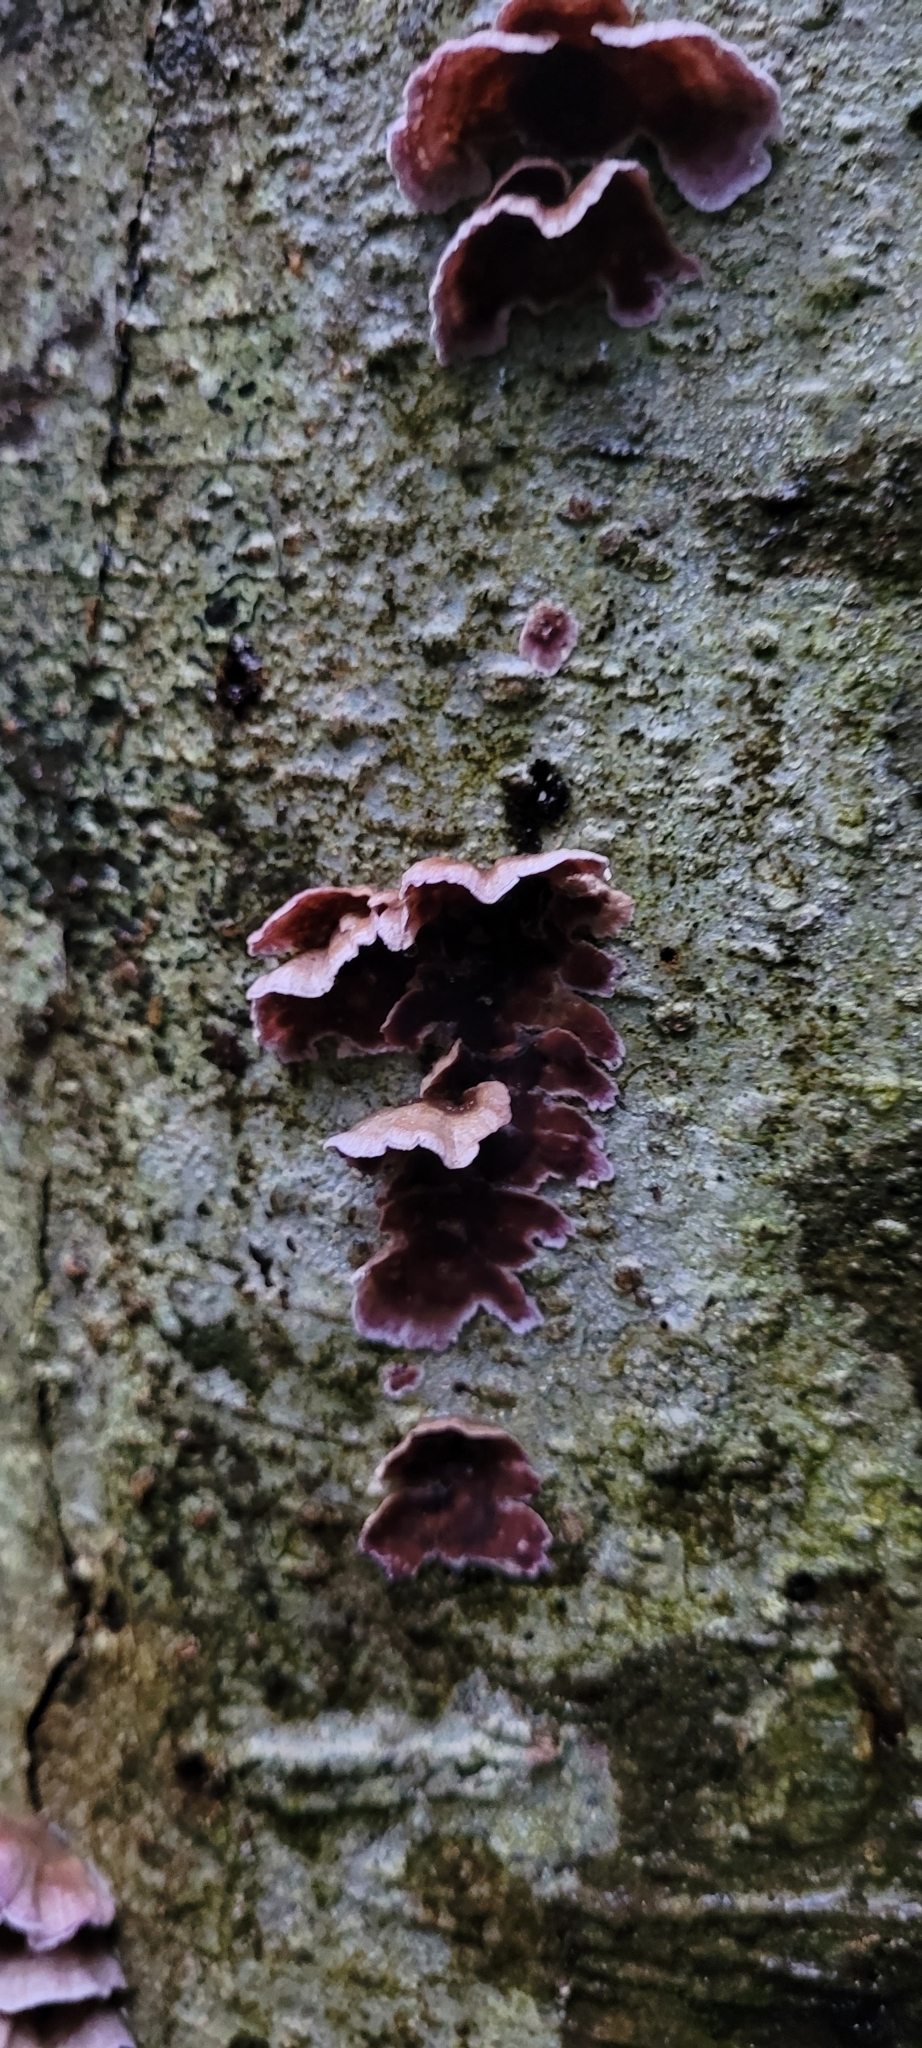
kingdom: Fungi
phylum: Basidiomycota
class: Agaricomycetes
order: Agaricales
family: Cyphellaceae
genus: Chondrostereum
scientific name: Chondrostereum purpureum
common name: Silver leaf disease
